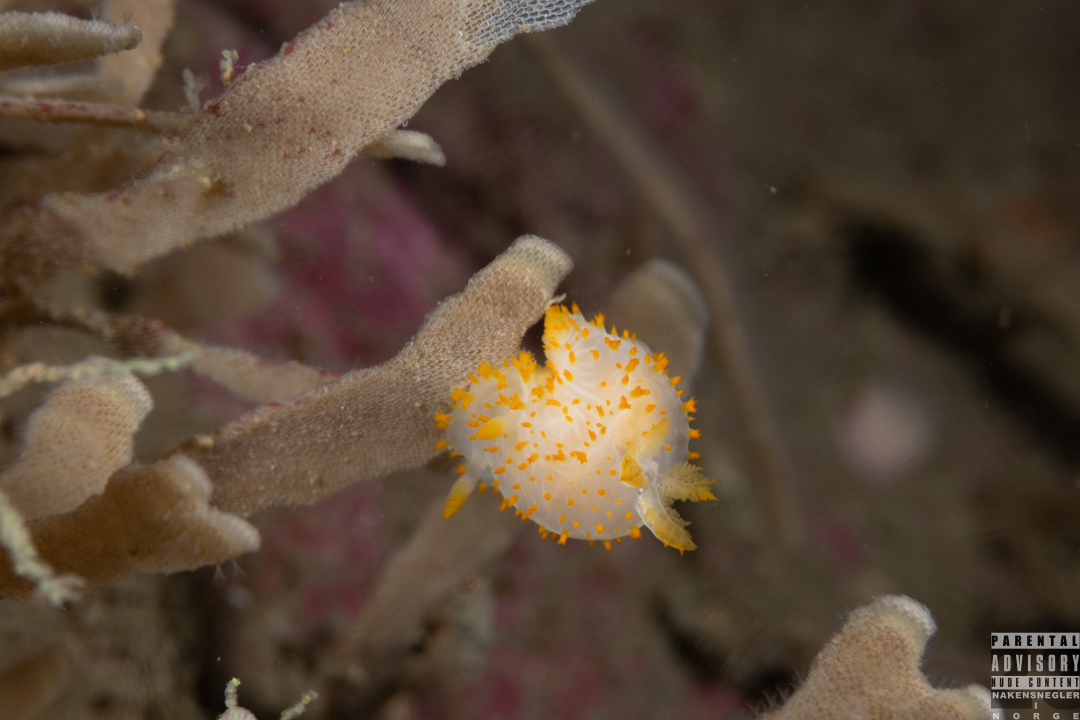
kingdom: Animalia
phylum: Mollusca
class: Gastropoda
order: Nudibranchia
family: Polyceridae
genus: Crimora
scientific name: Crimora papillata
